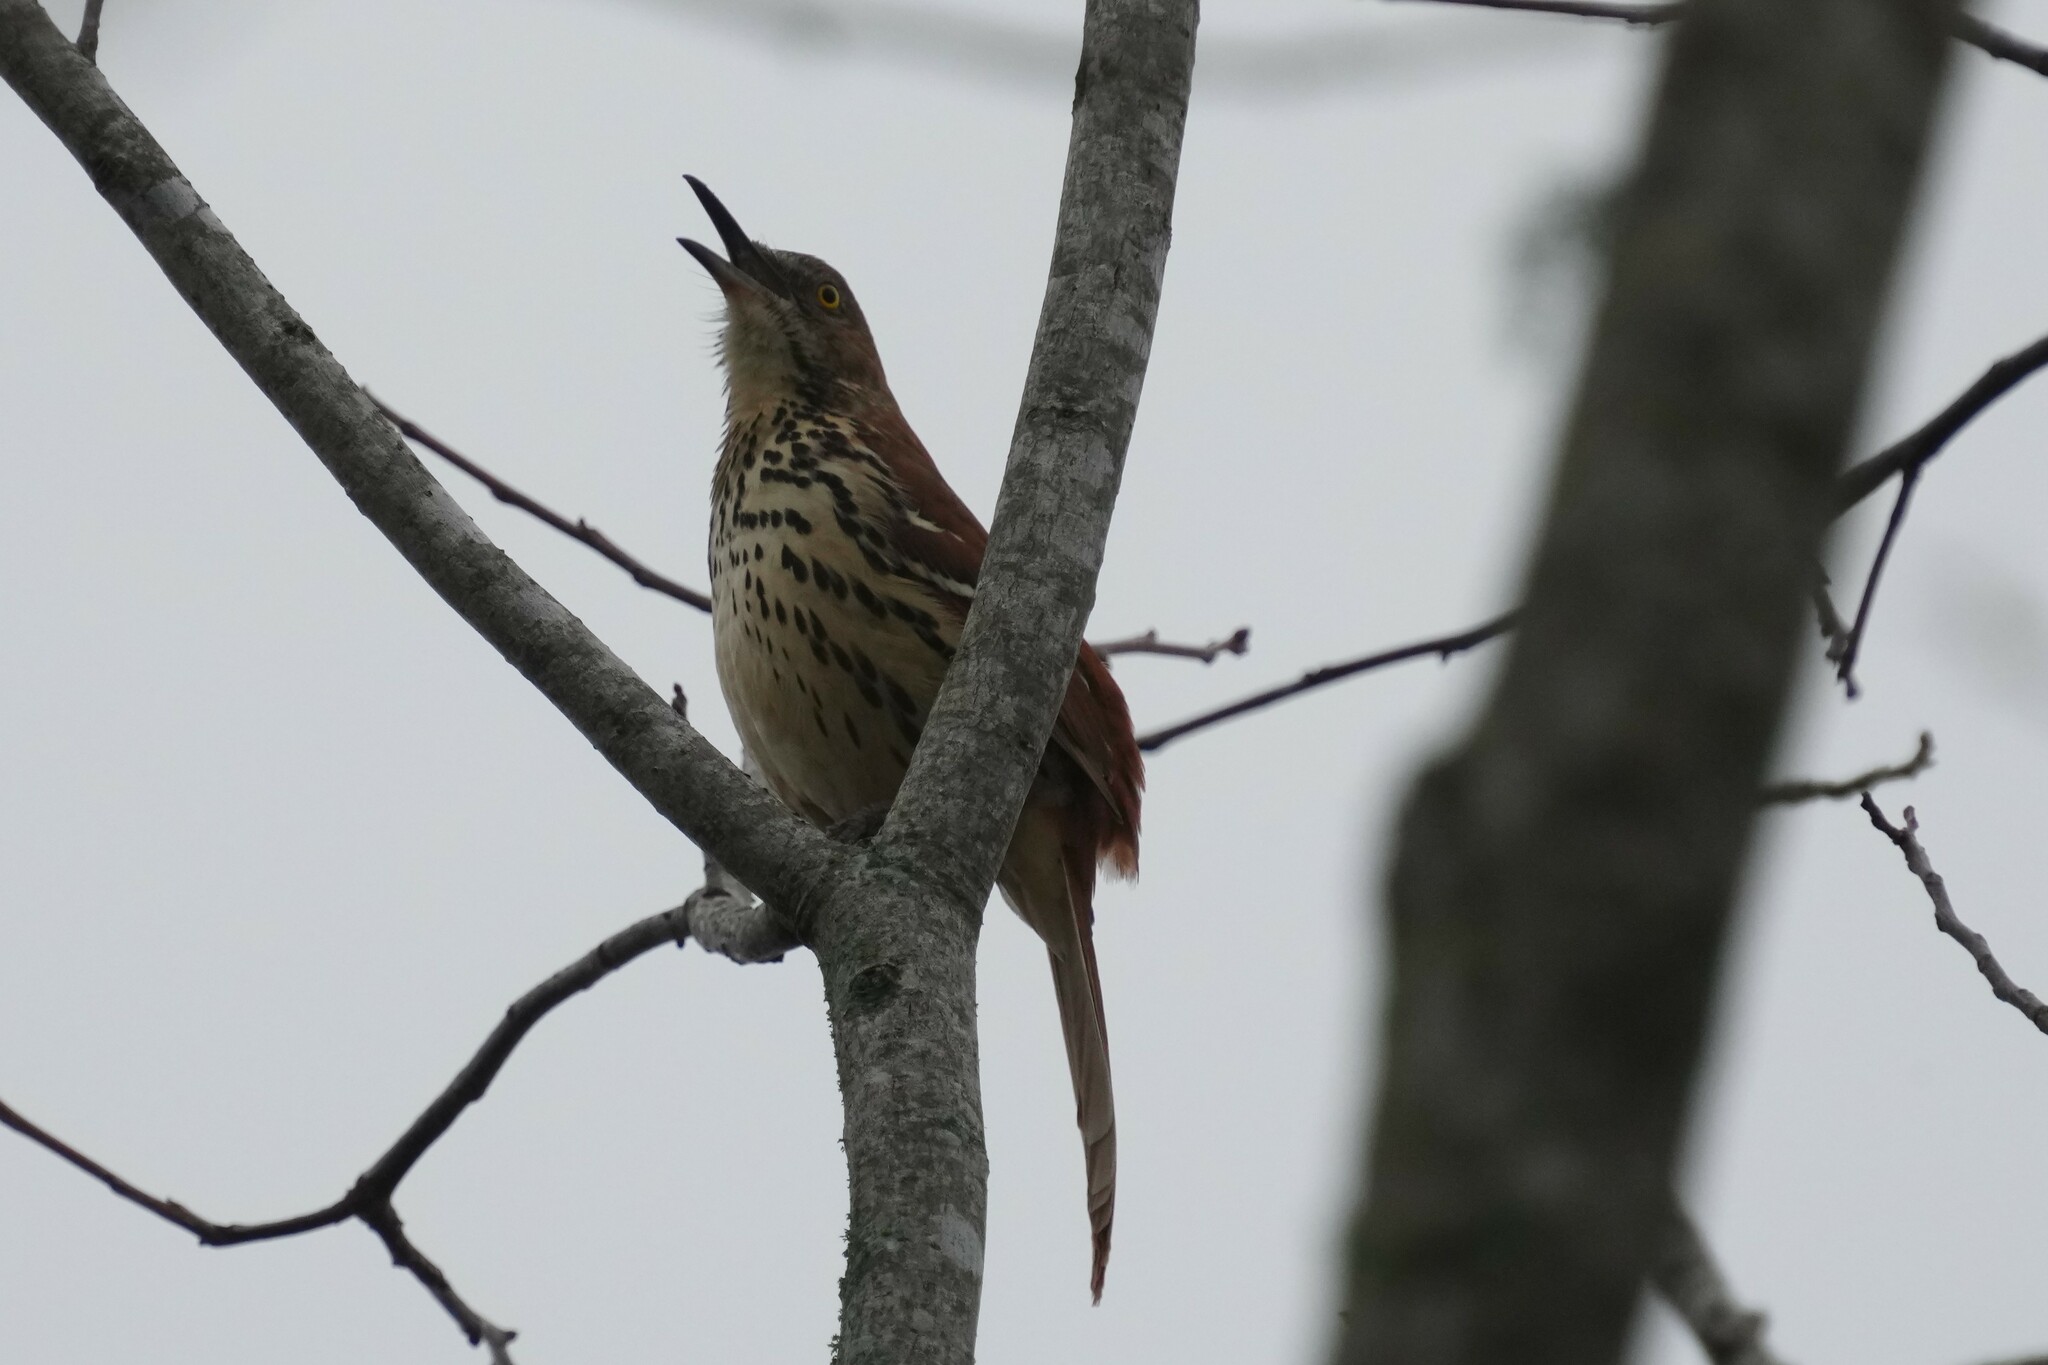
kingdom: Animalia
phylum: Chordata
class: Aves
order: Passeriformes
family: Mimidae
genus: Toxostoma
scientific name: Toxostoma rufum
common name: Brown thrasher
